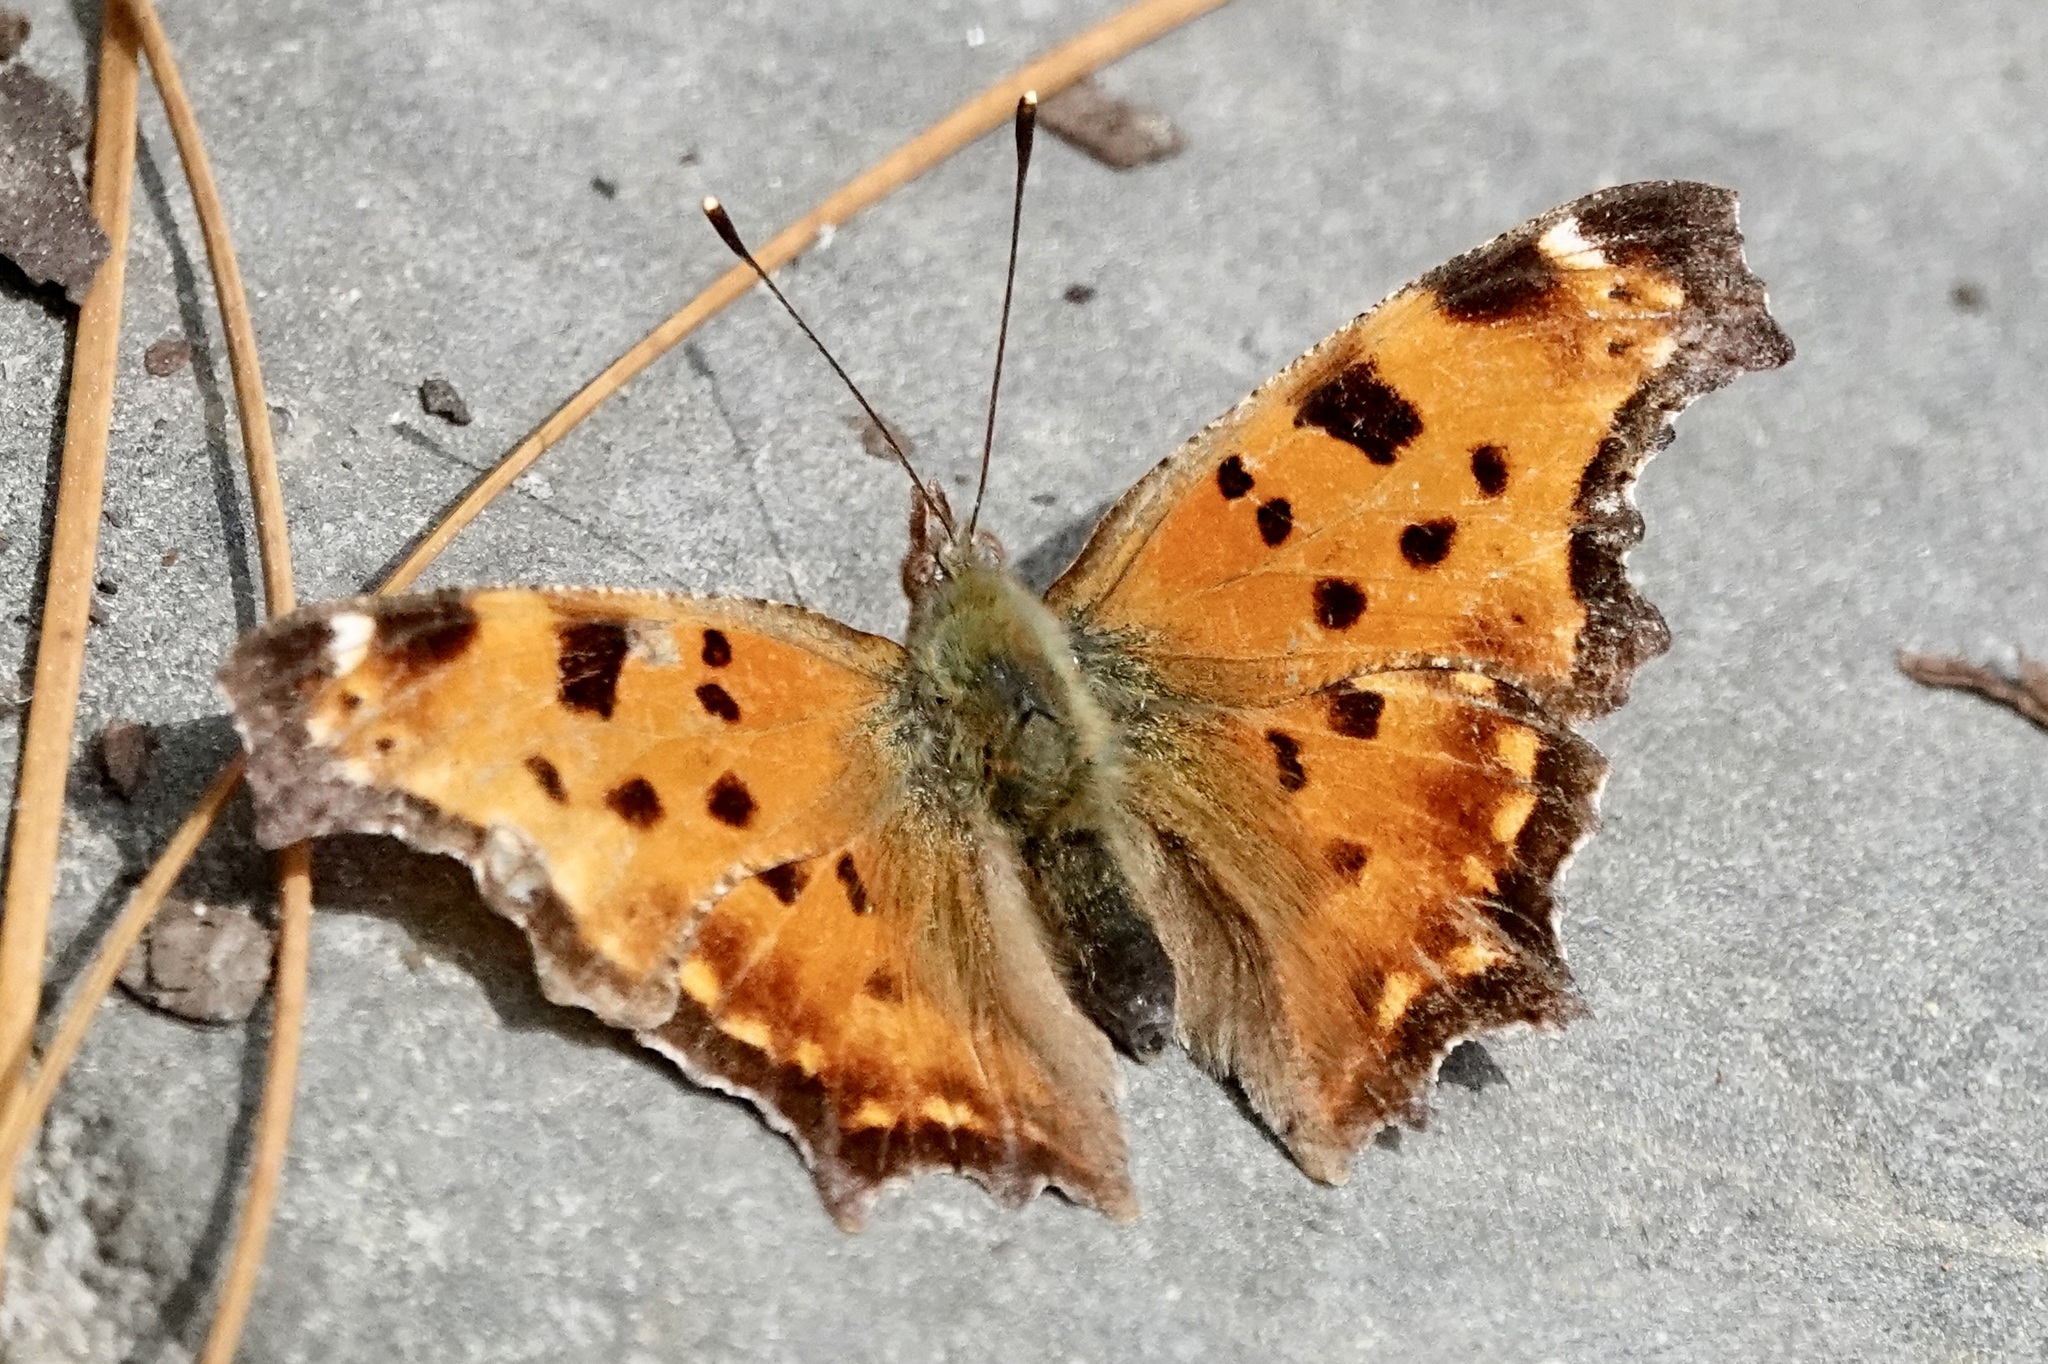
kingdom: Animalia
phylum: Arthropoda
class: Insecta
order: Lepidoptera
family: Nymphalidae
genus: Polygonia
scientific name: Polygonia comma
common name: Eastern comma
